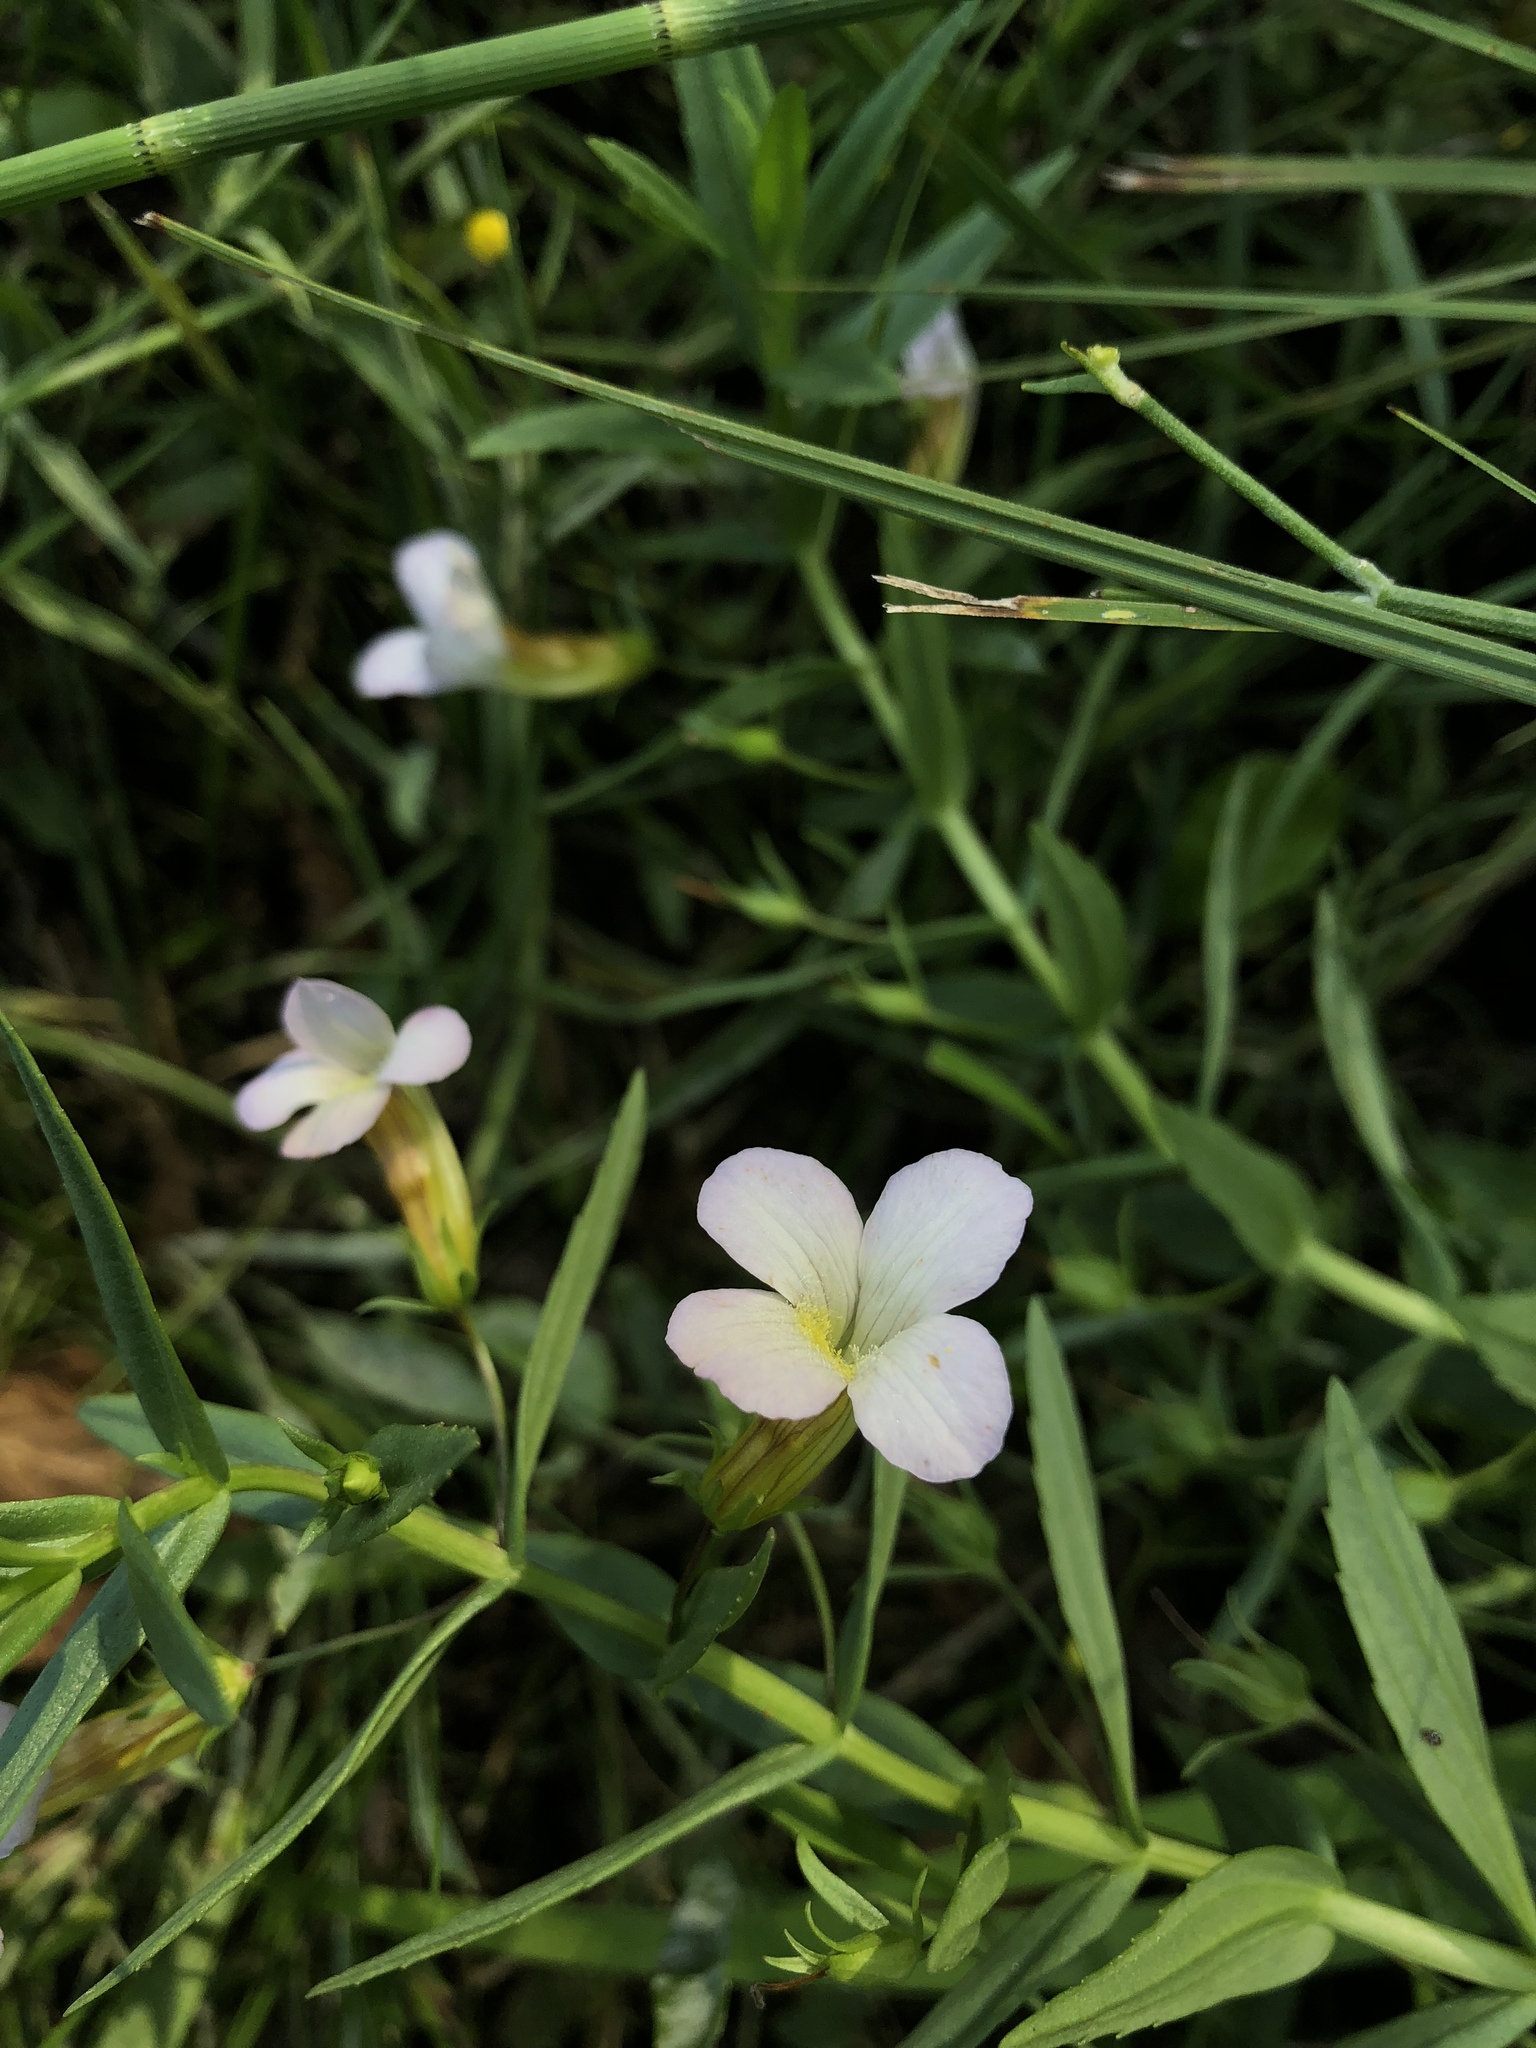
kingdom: Plantae
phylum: Tracheophyta
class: Magnoliopsida
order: Lamiales
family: Plantaginaceae
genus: Gratiola
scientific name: Gratiola officinalis
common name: Gratiola
